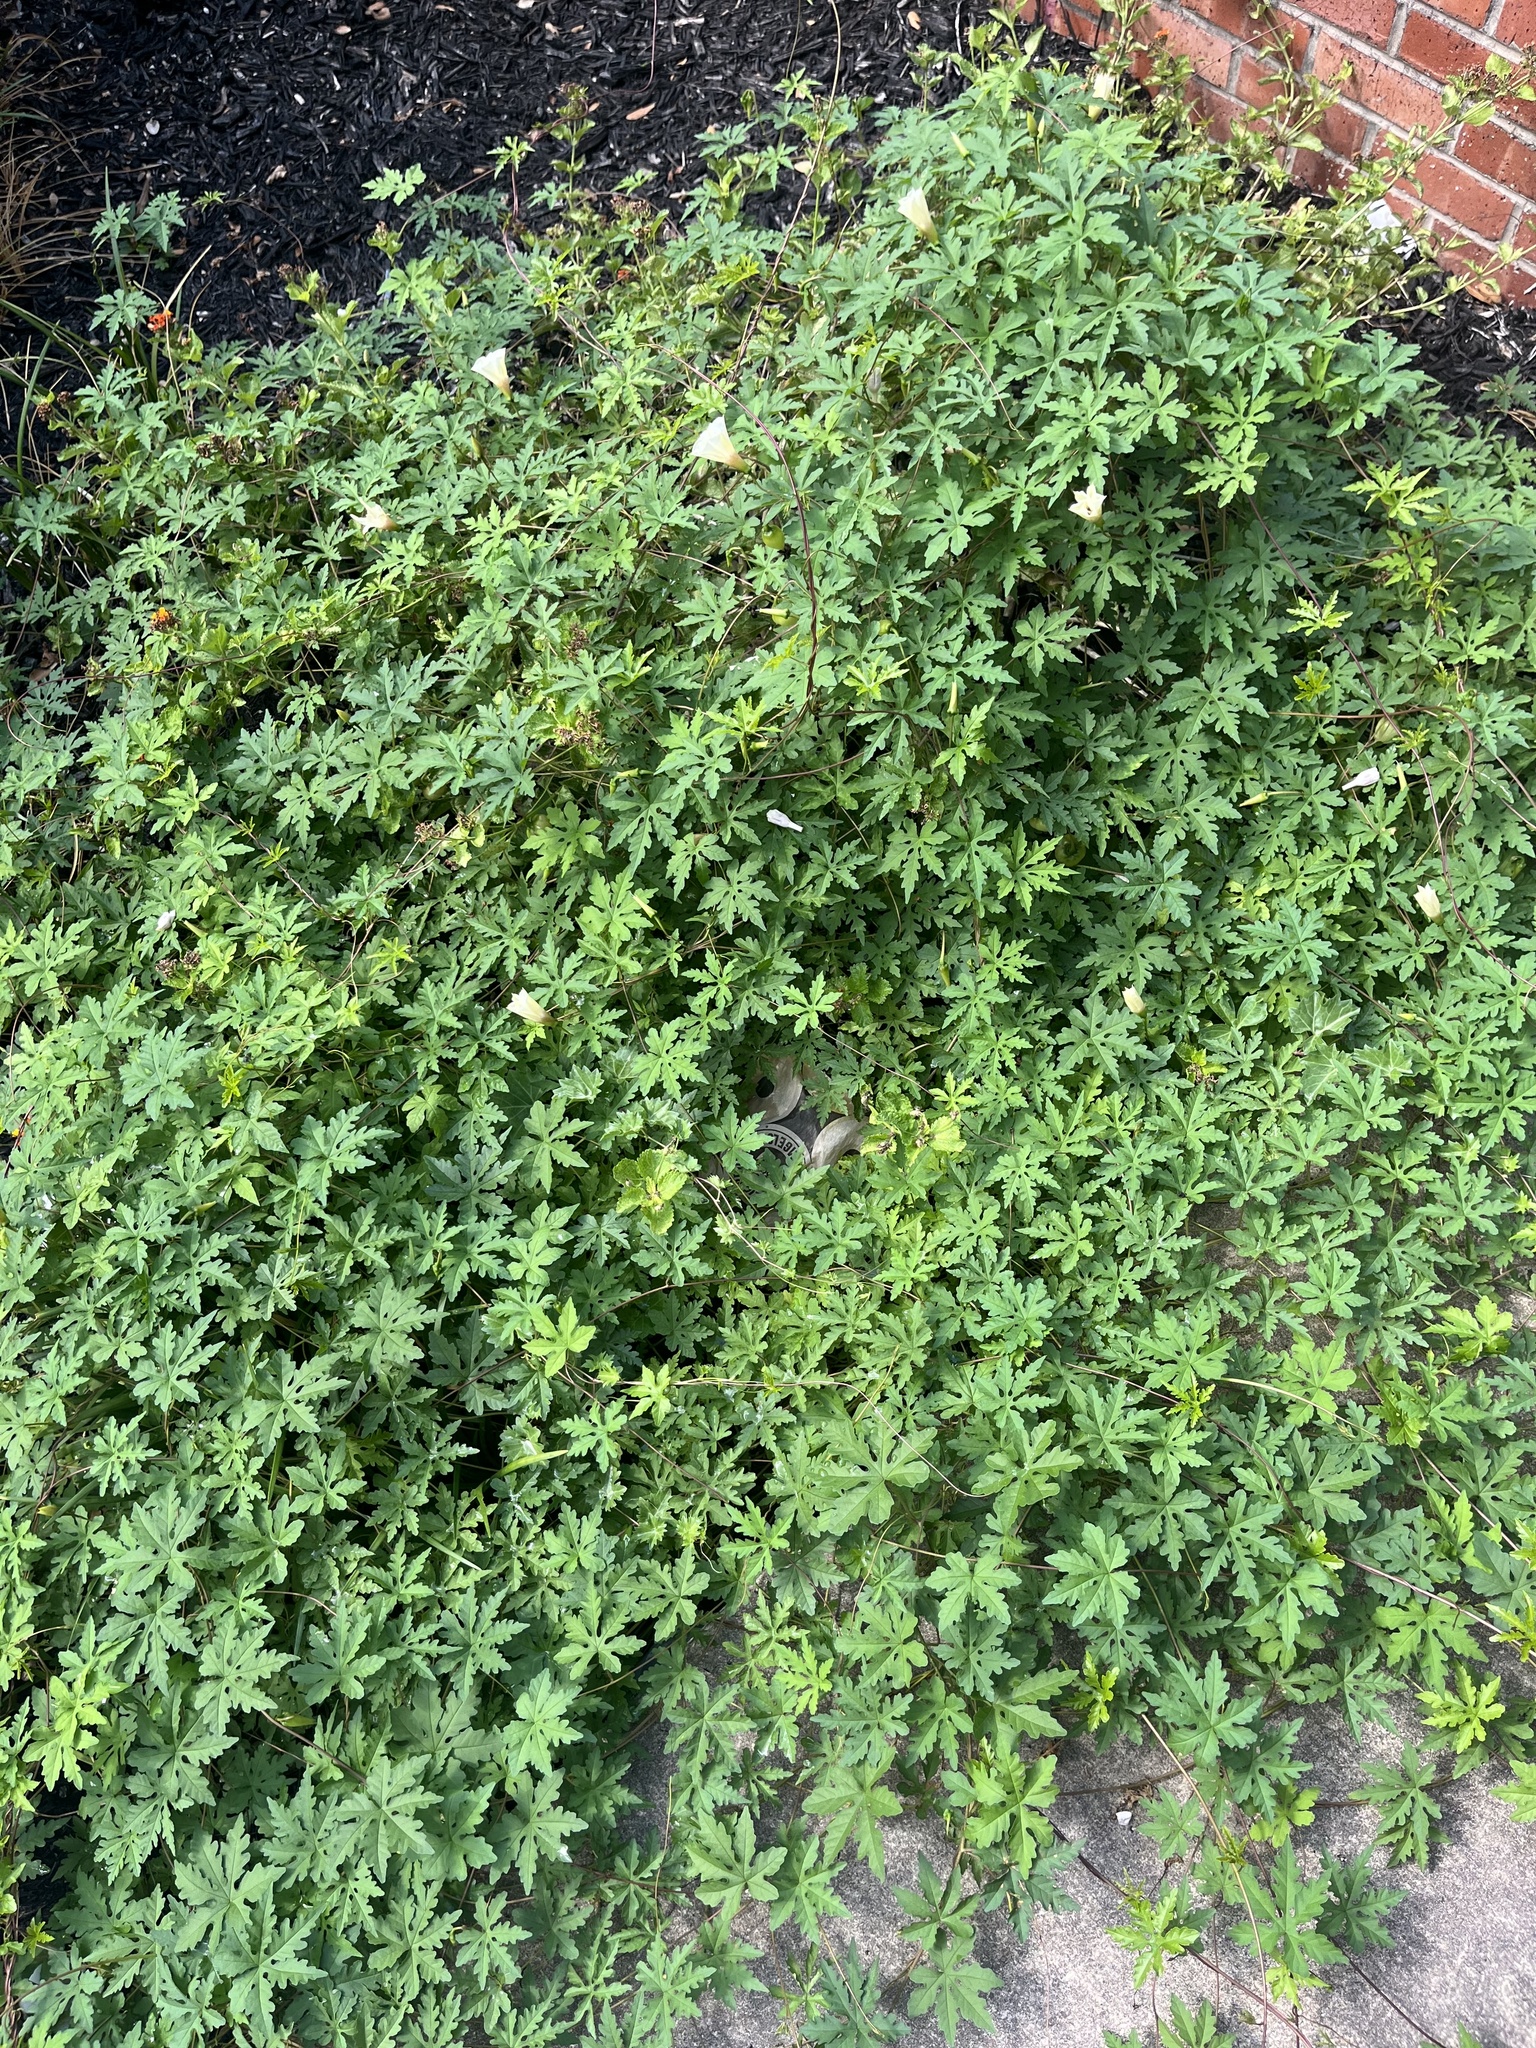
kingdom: Plantae
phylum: Tracheophyta
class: Magnoliopsida
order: Solanales
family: Convolvulaceae
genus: Distimake
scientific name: Distimake dissectus
